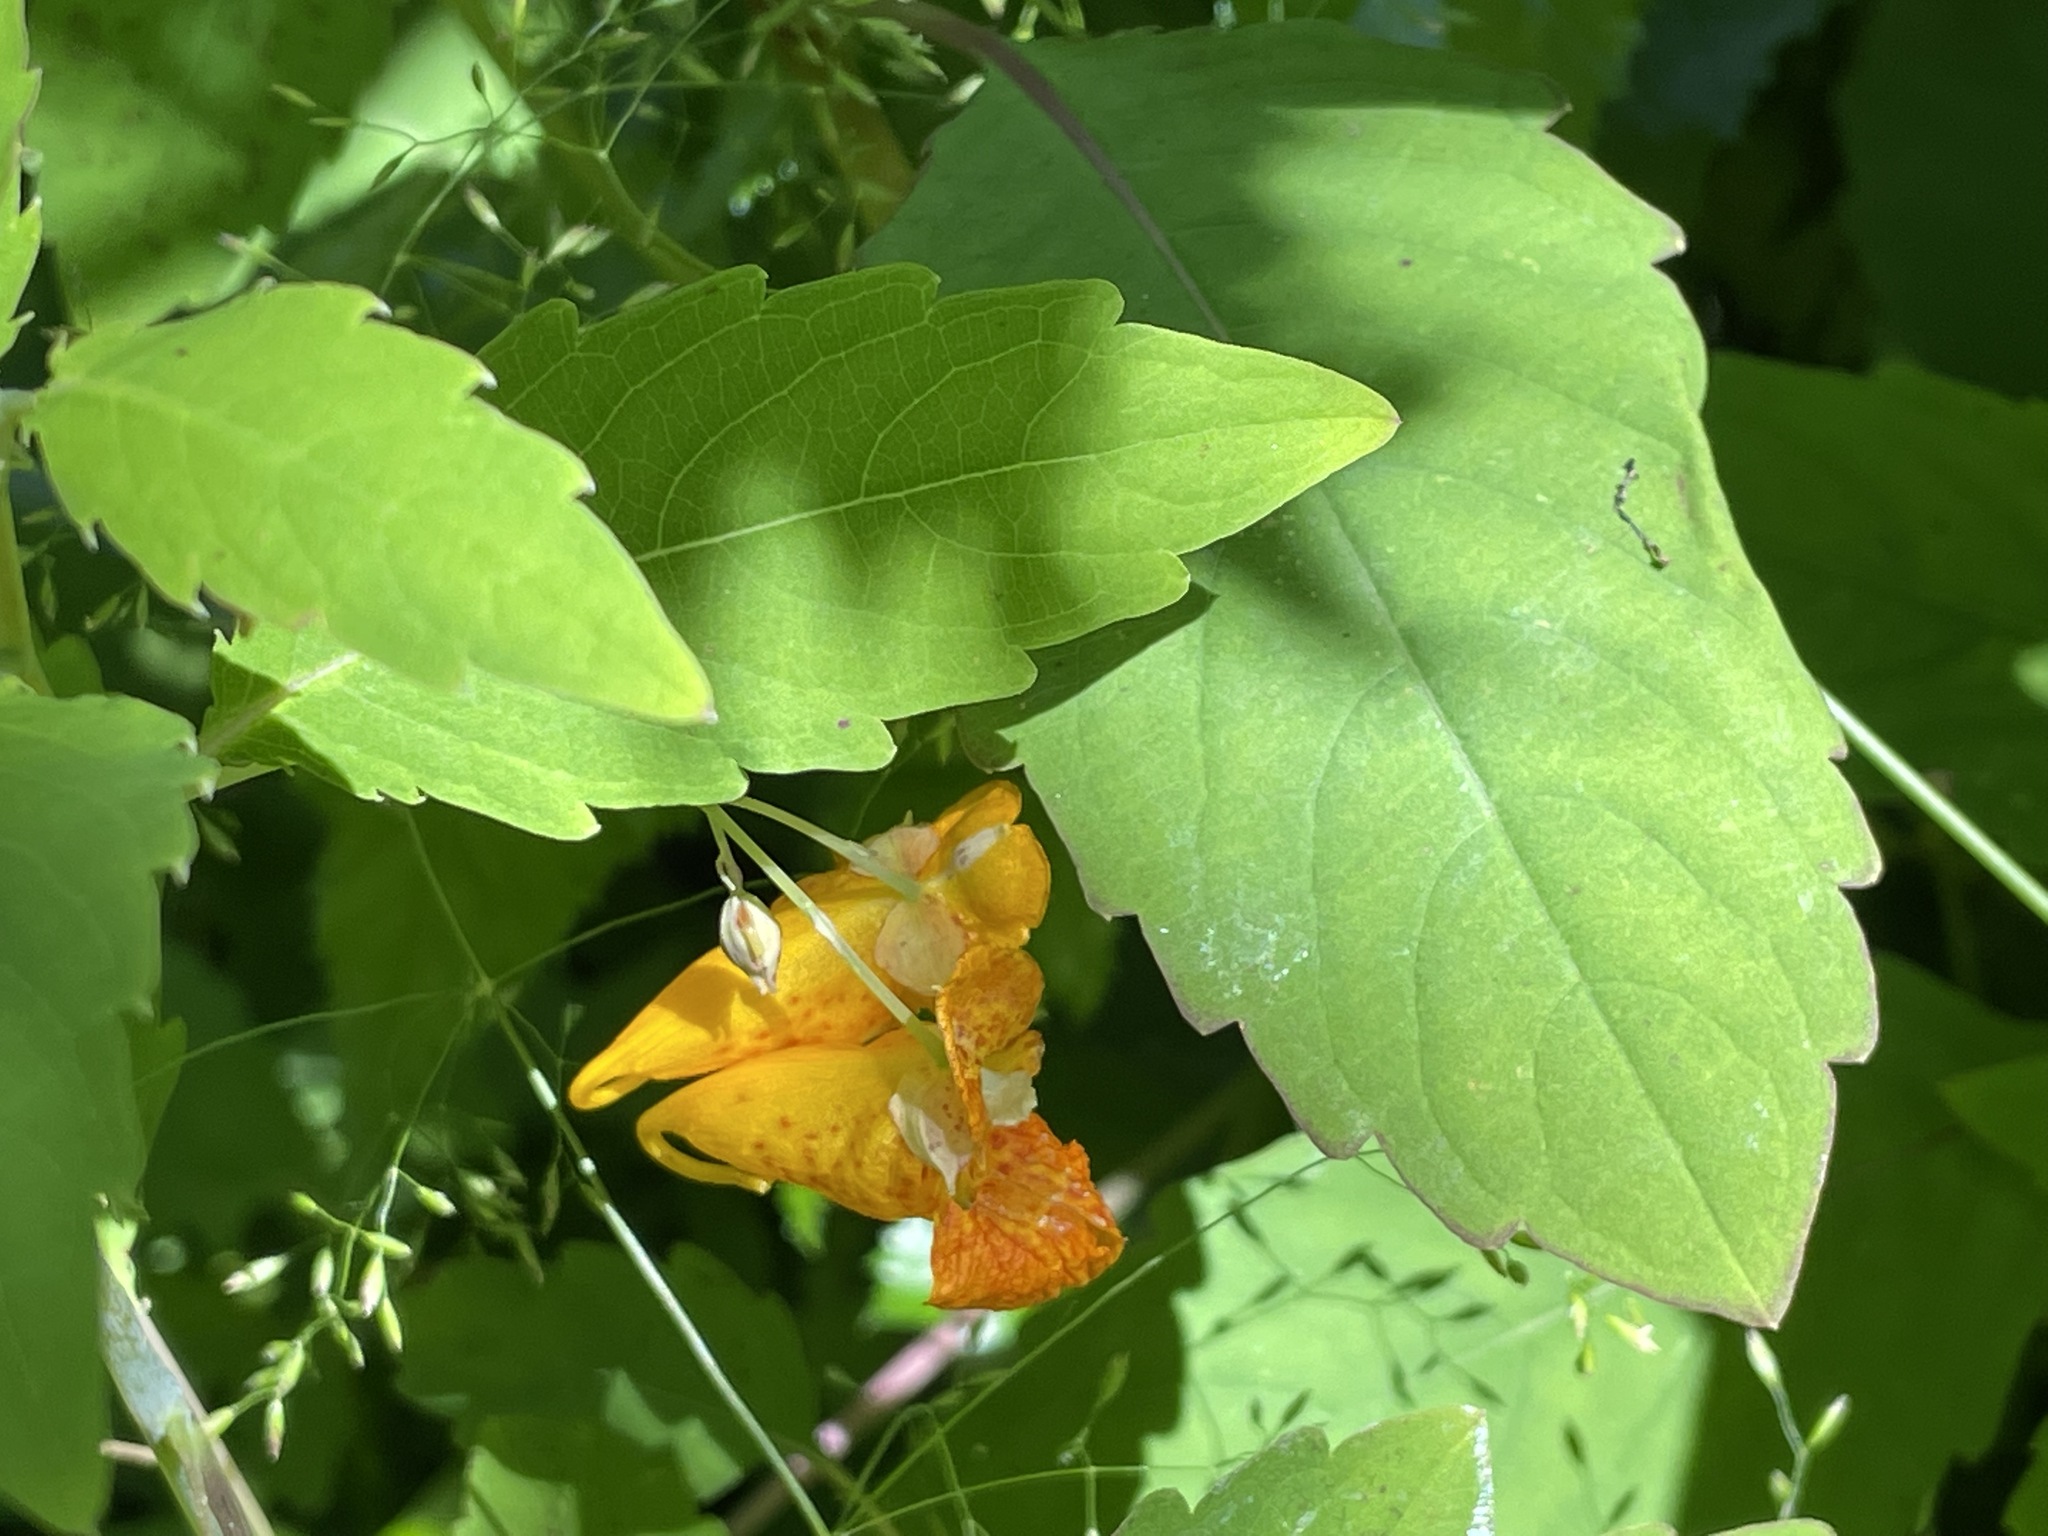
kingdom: Plantae
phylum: Tracheophyta
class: Magnoliopsida
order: Ericales
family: Balsaminaceae
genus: Impatiens
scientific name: Impatiens capensis
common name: Orange balsam
